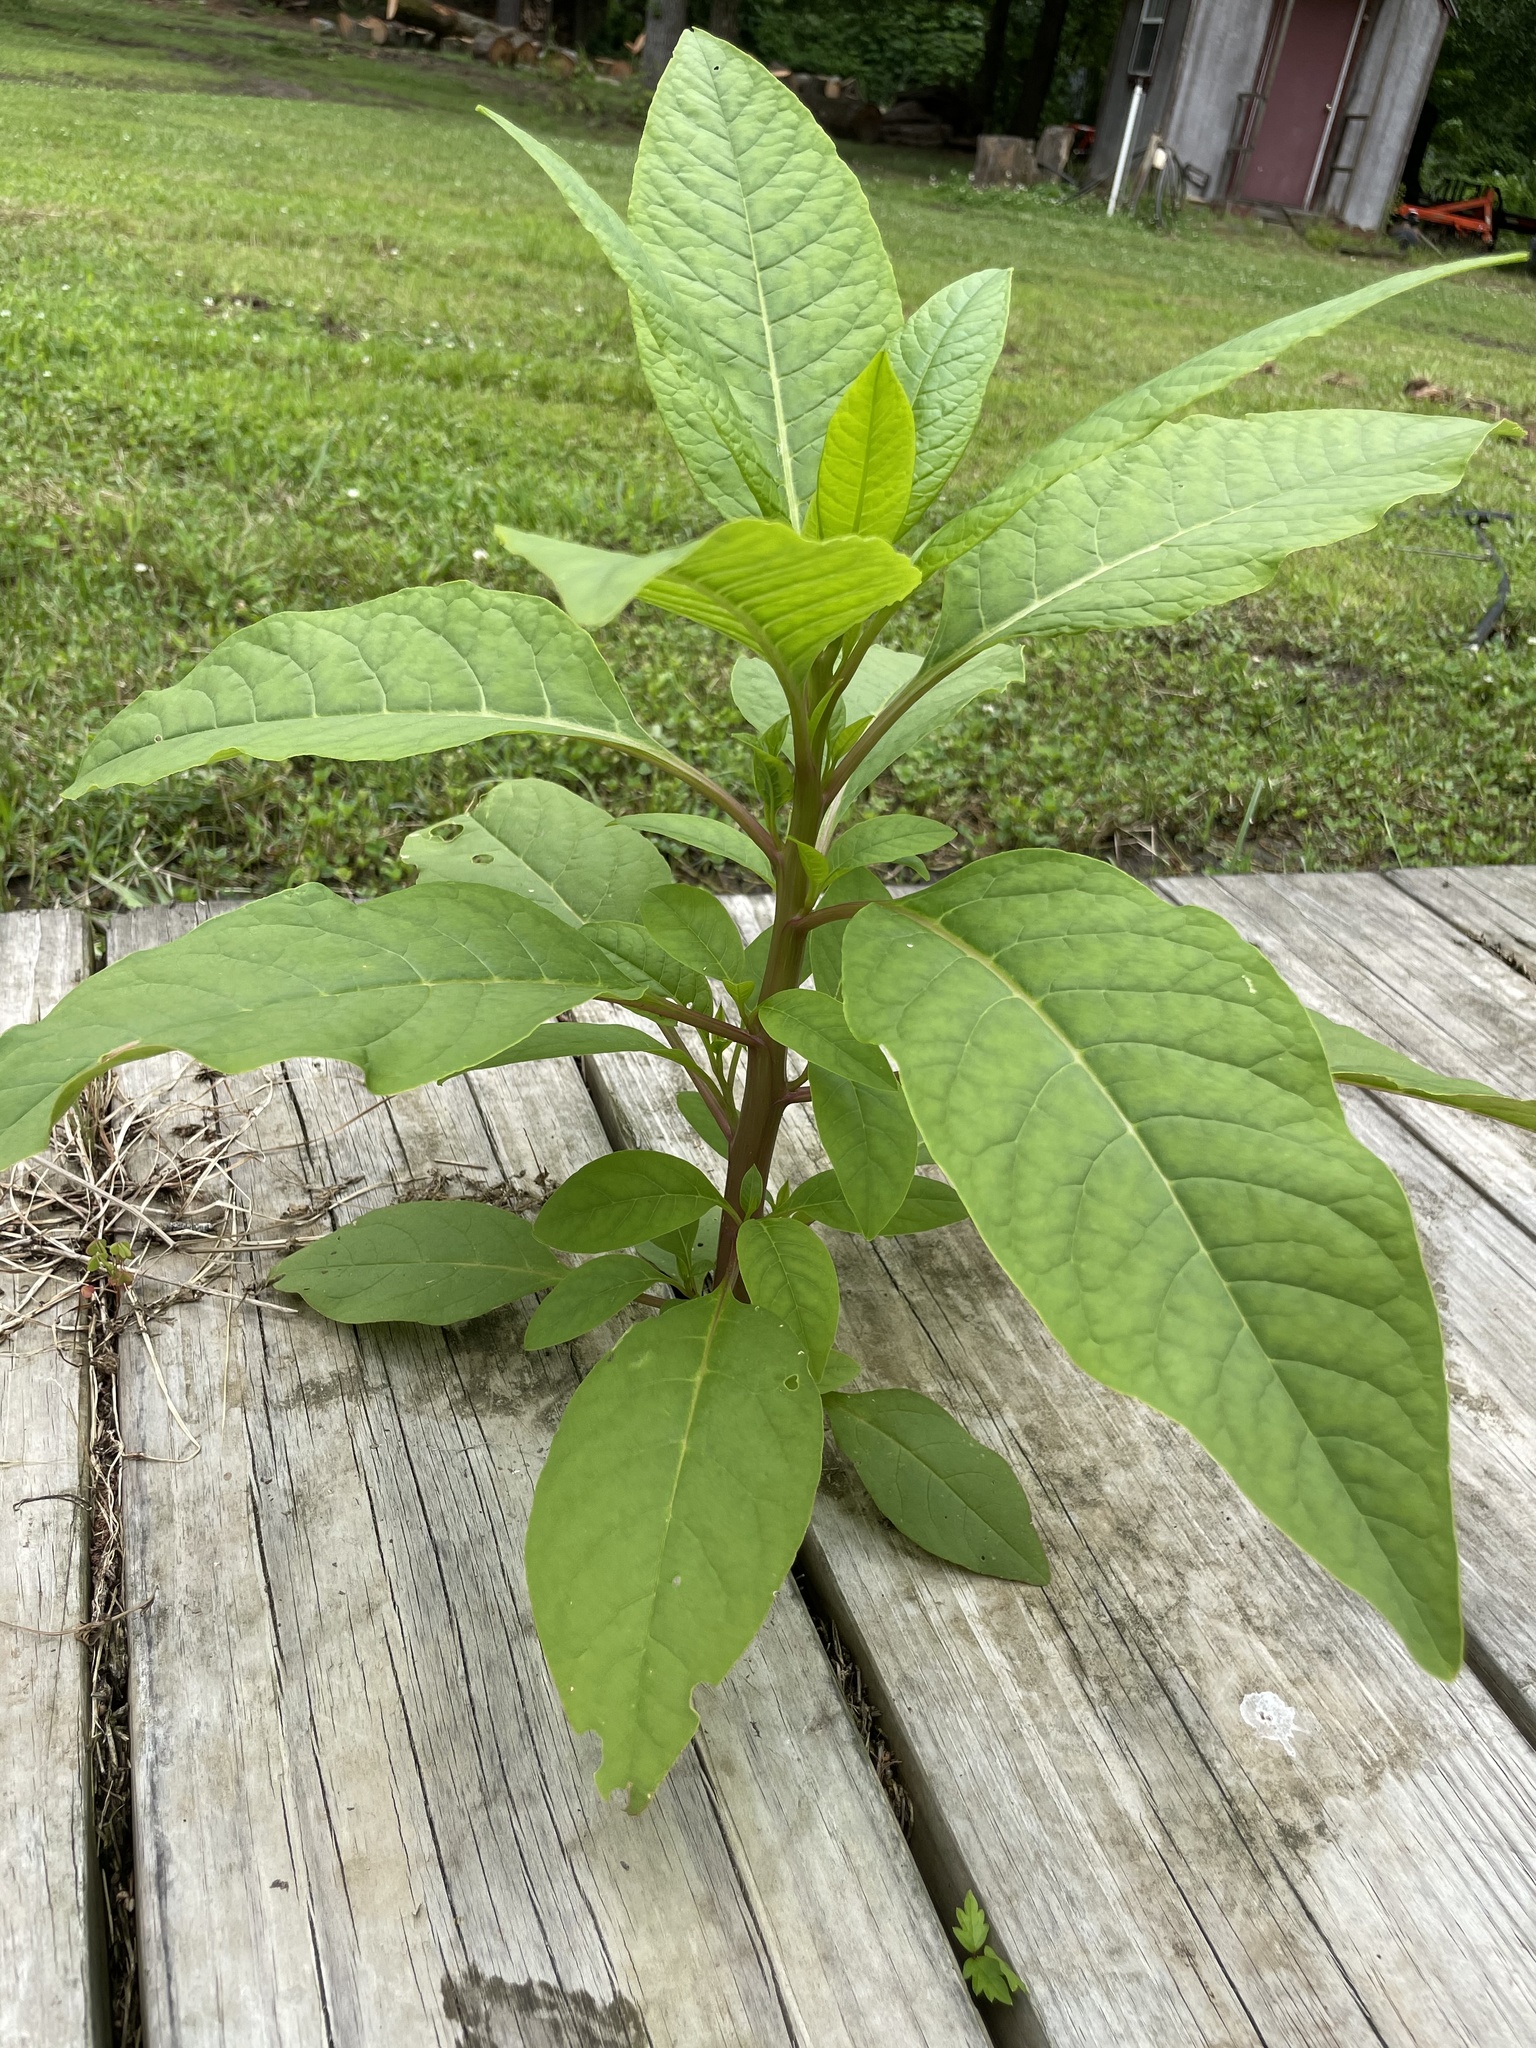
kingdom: Plantae
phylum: Tracheophyta
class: Magnoliopsida
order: Caryophyllales
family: Phytolaccaceae
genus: Phytolacca
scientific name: Phytolacca americana
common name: American pokeweed
